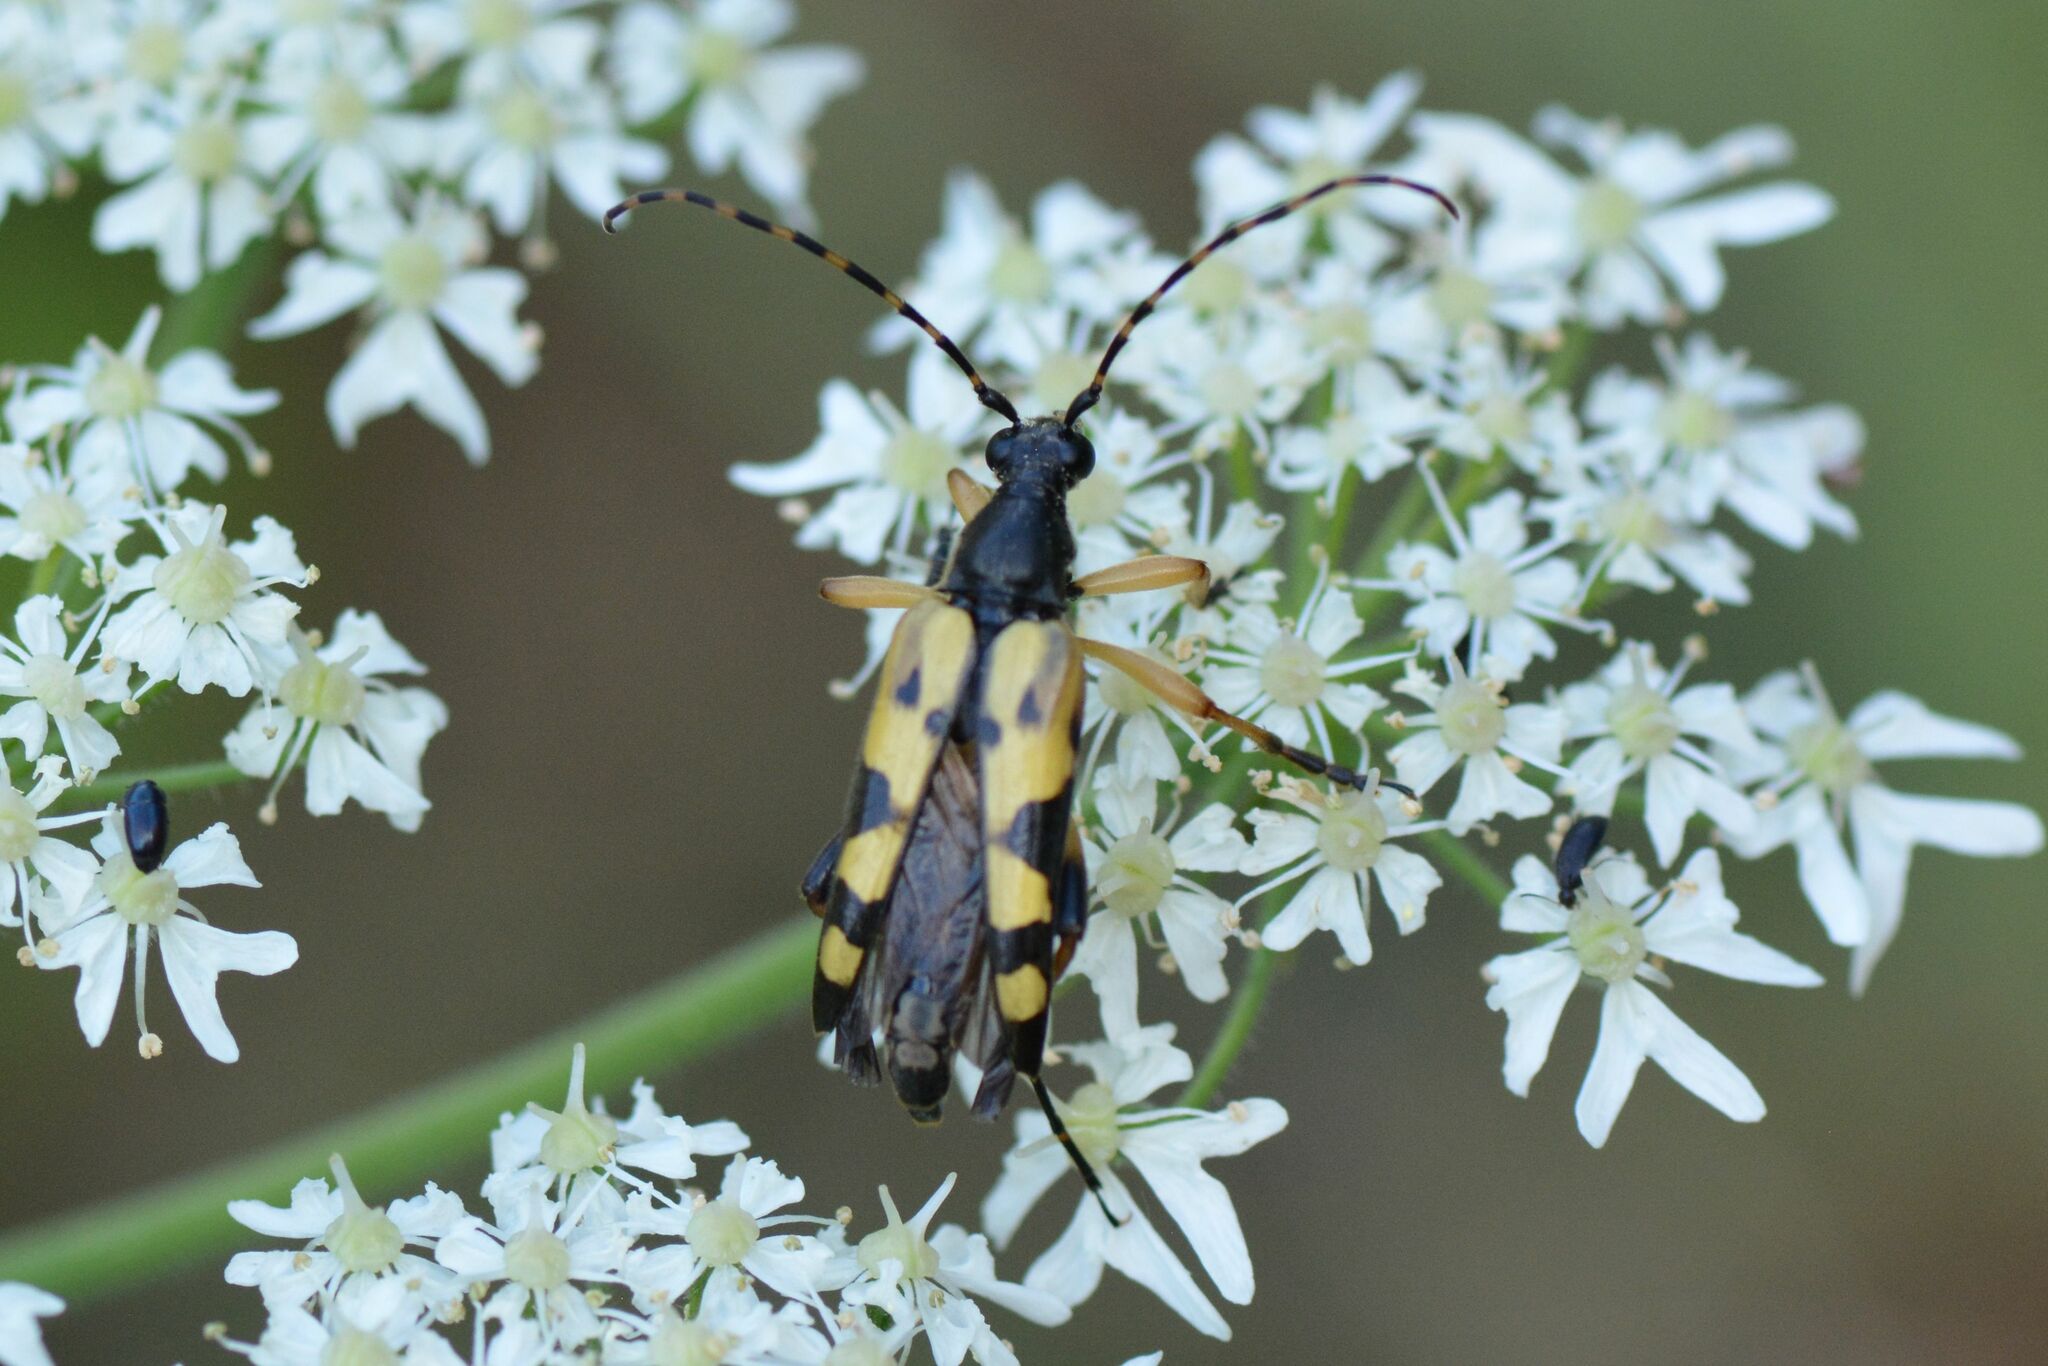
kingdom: Animalia
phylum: Arthropoda
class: Insecta
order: Coleoptera
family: Cerambycidae
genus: Rutpela
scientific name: Rutpela maculata
